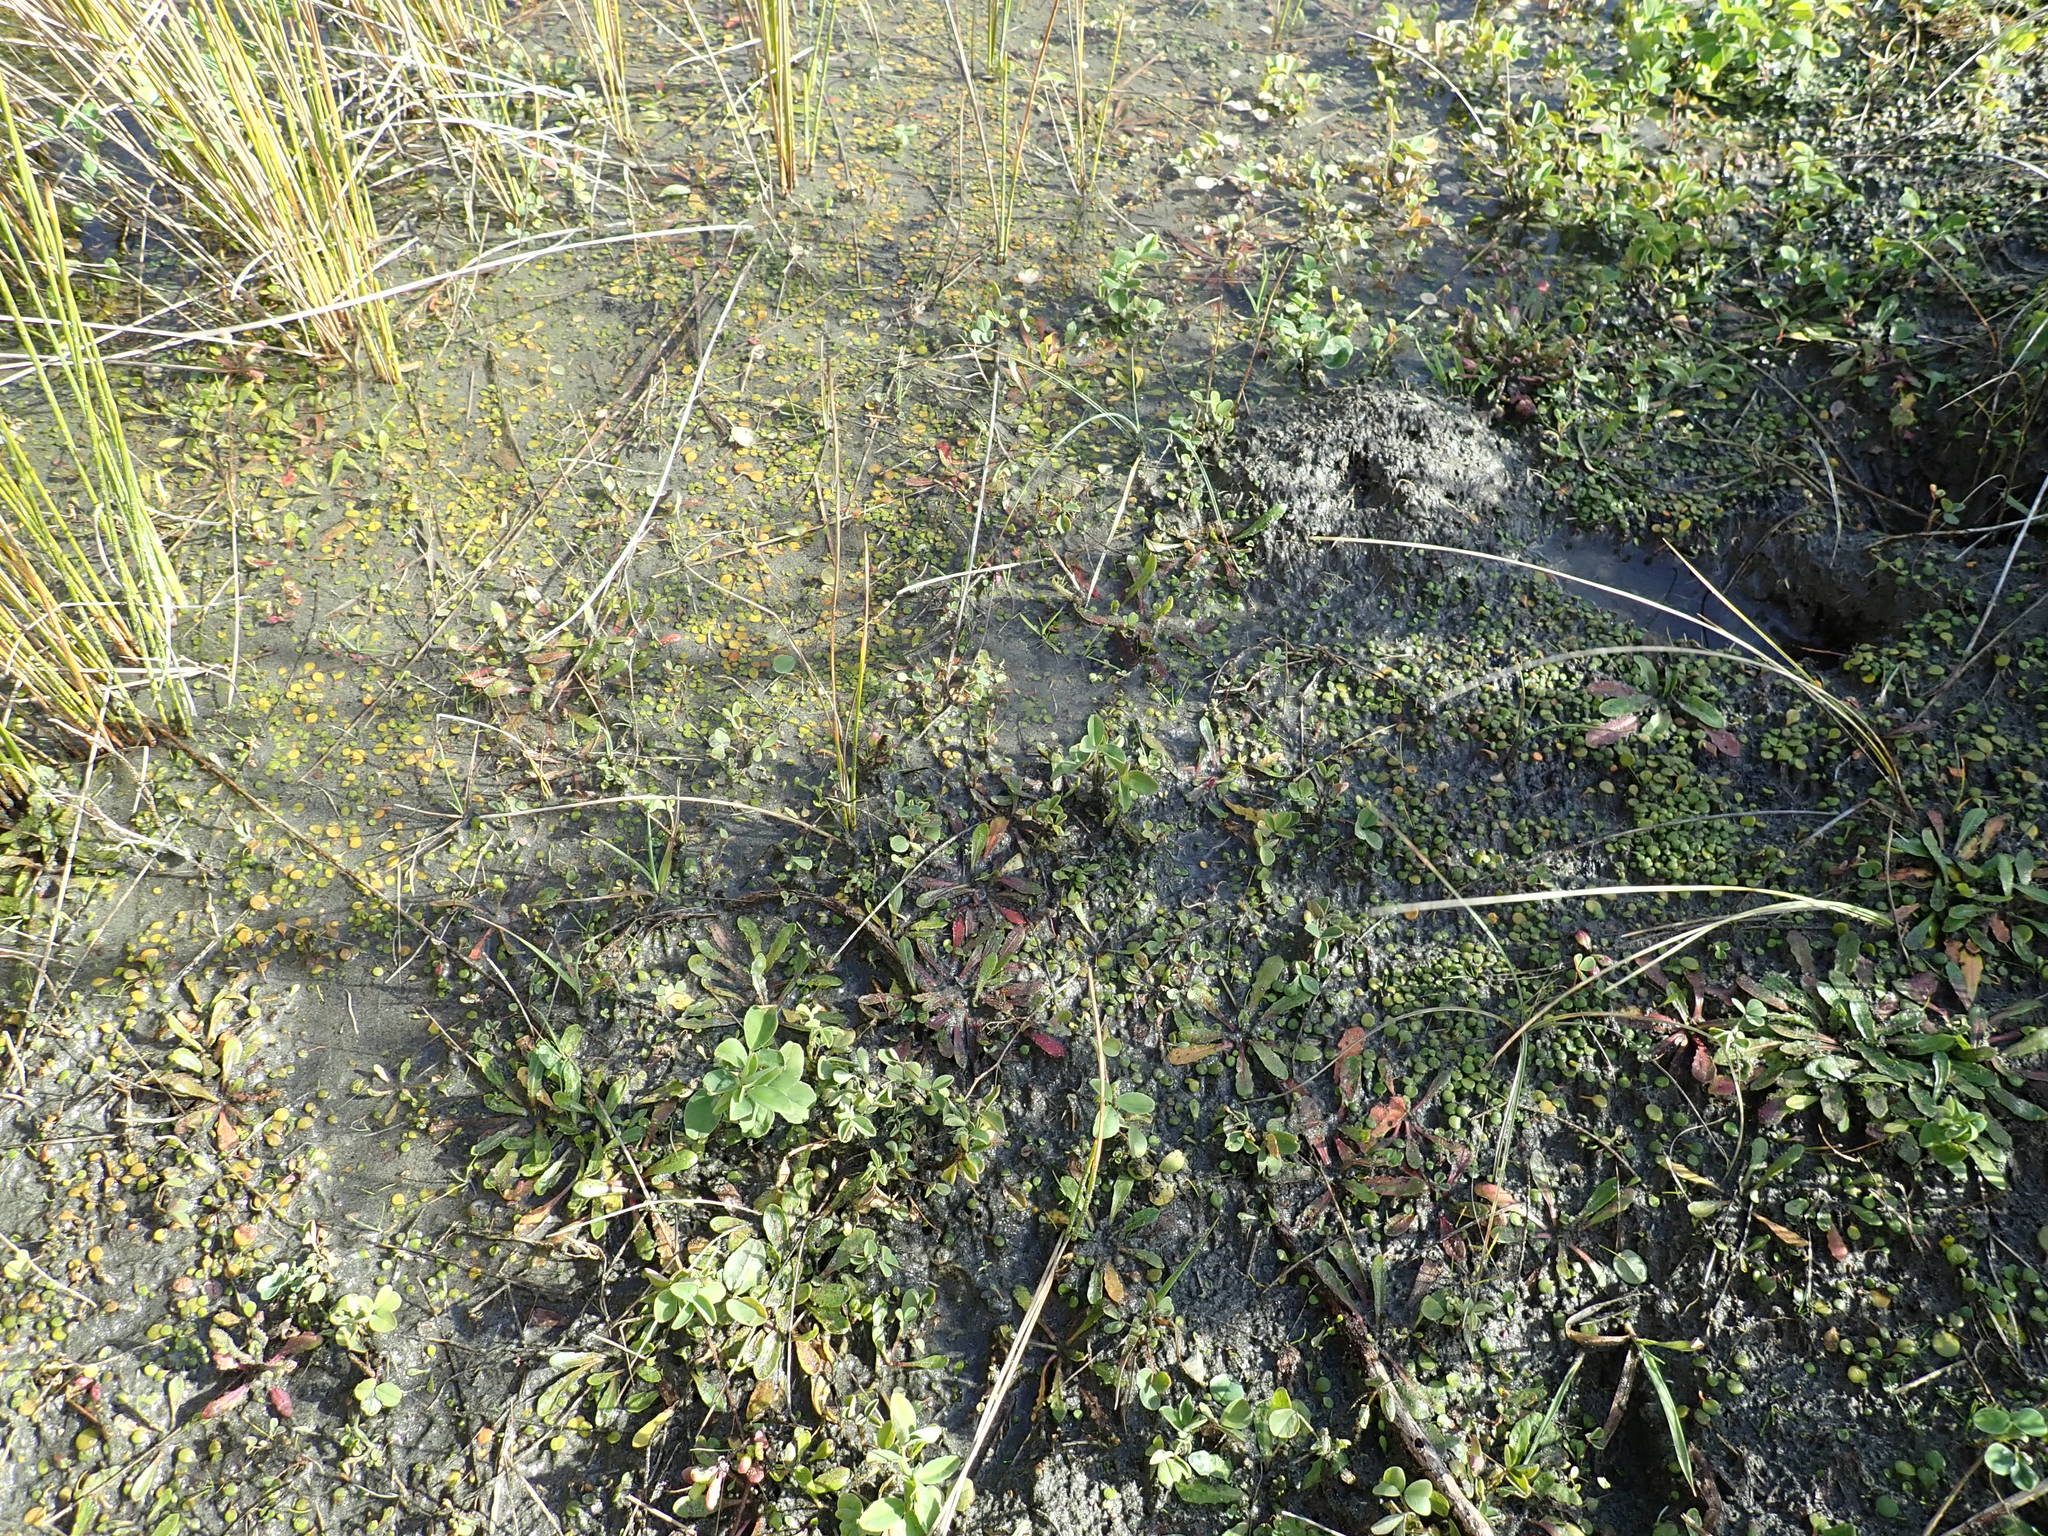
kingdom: Plantae
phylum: Tracheophyta
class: Magnoliopsida
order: Asterales
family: Goodeniaceae
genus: Goodenia
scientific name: Goodenia heenanii
